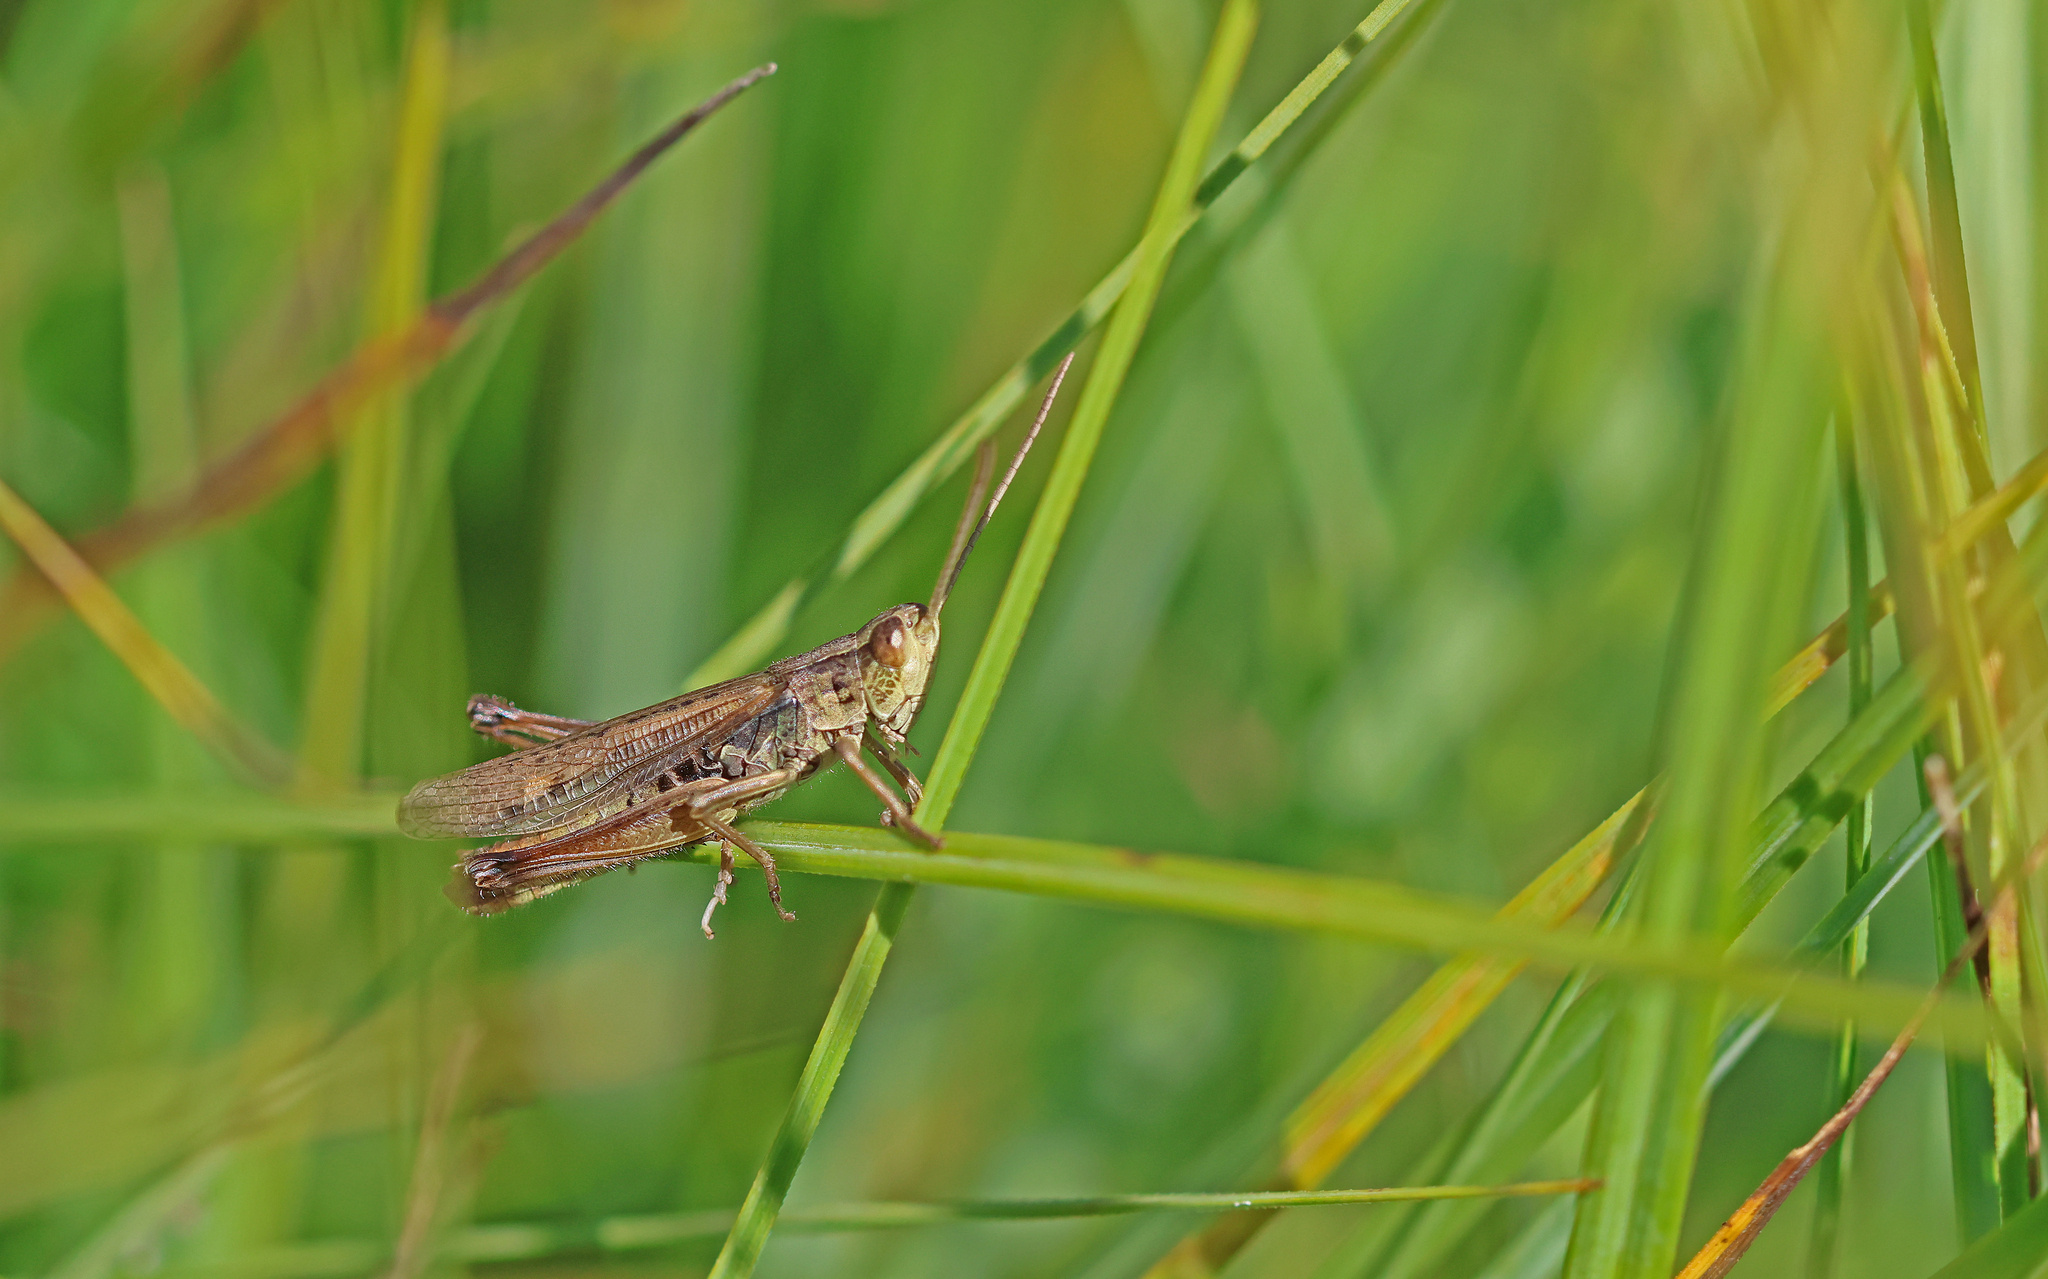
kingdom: Animalia
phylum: Arthropoda
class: Insecta
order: Orthoptera
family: Acrididae
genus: Chorthippus
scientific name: Chorthippus dorsatus
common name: Steppe grasshopper
